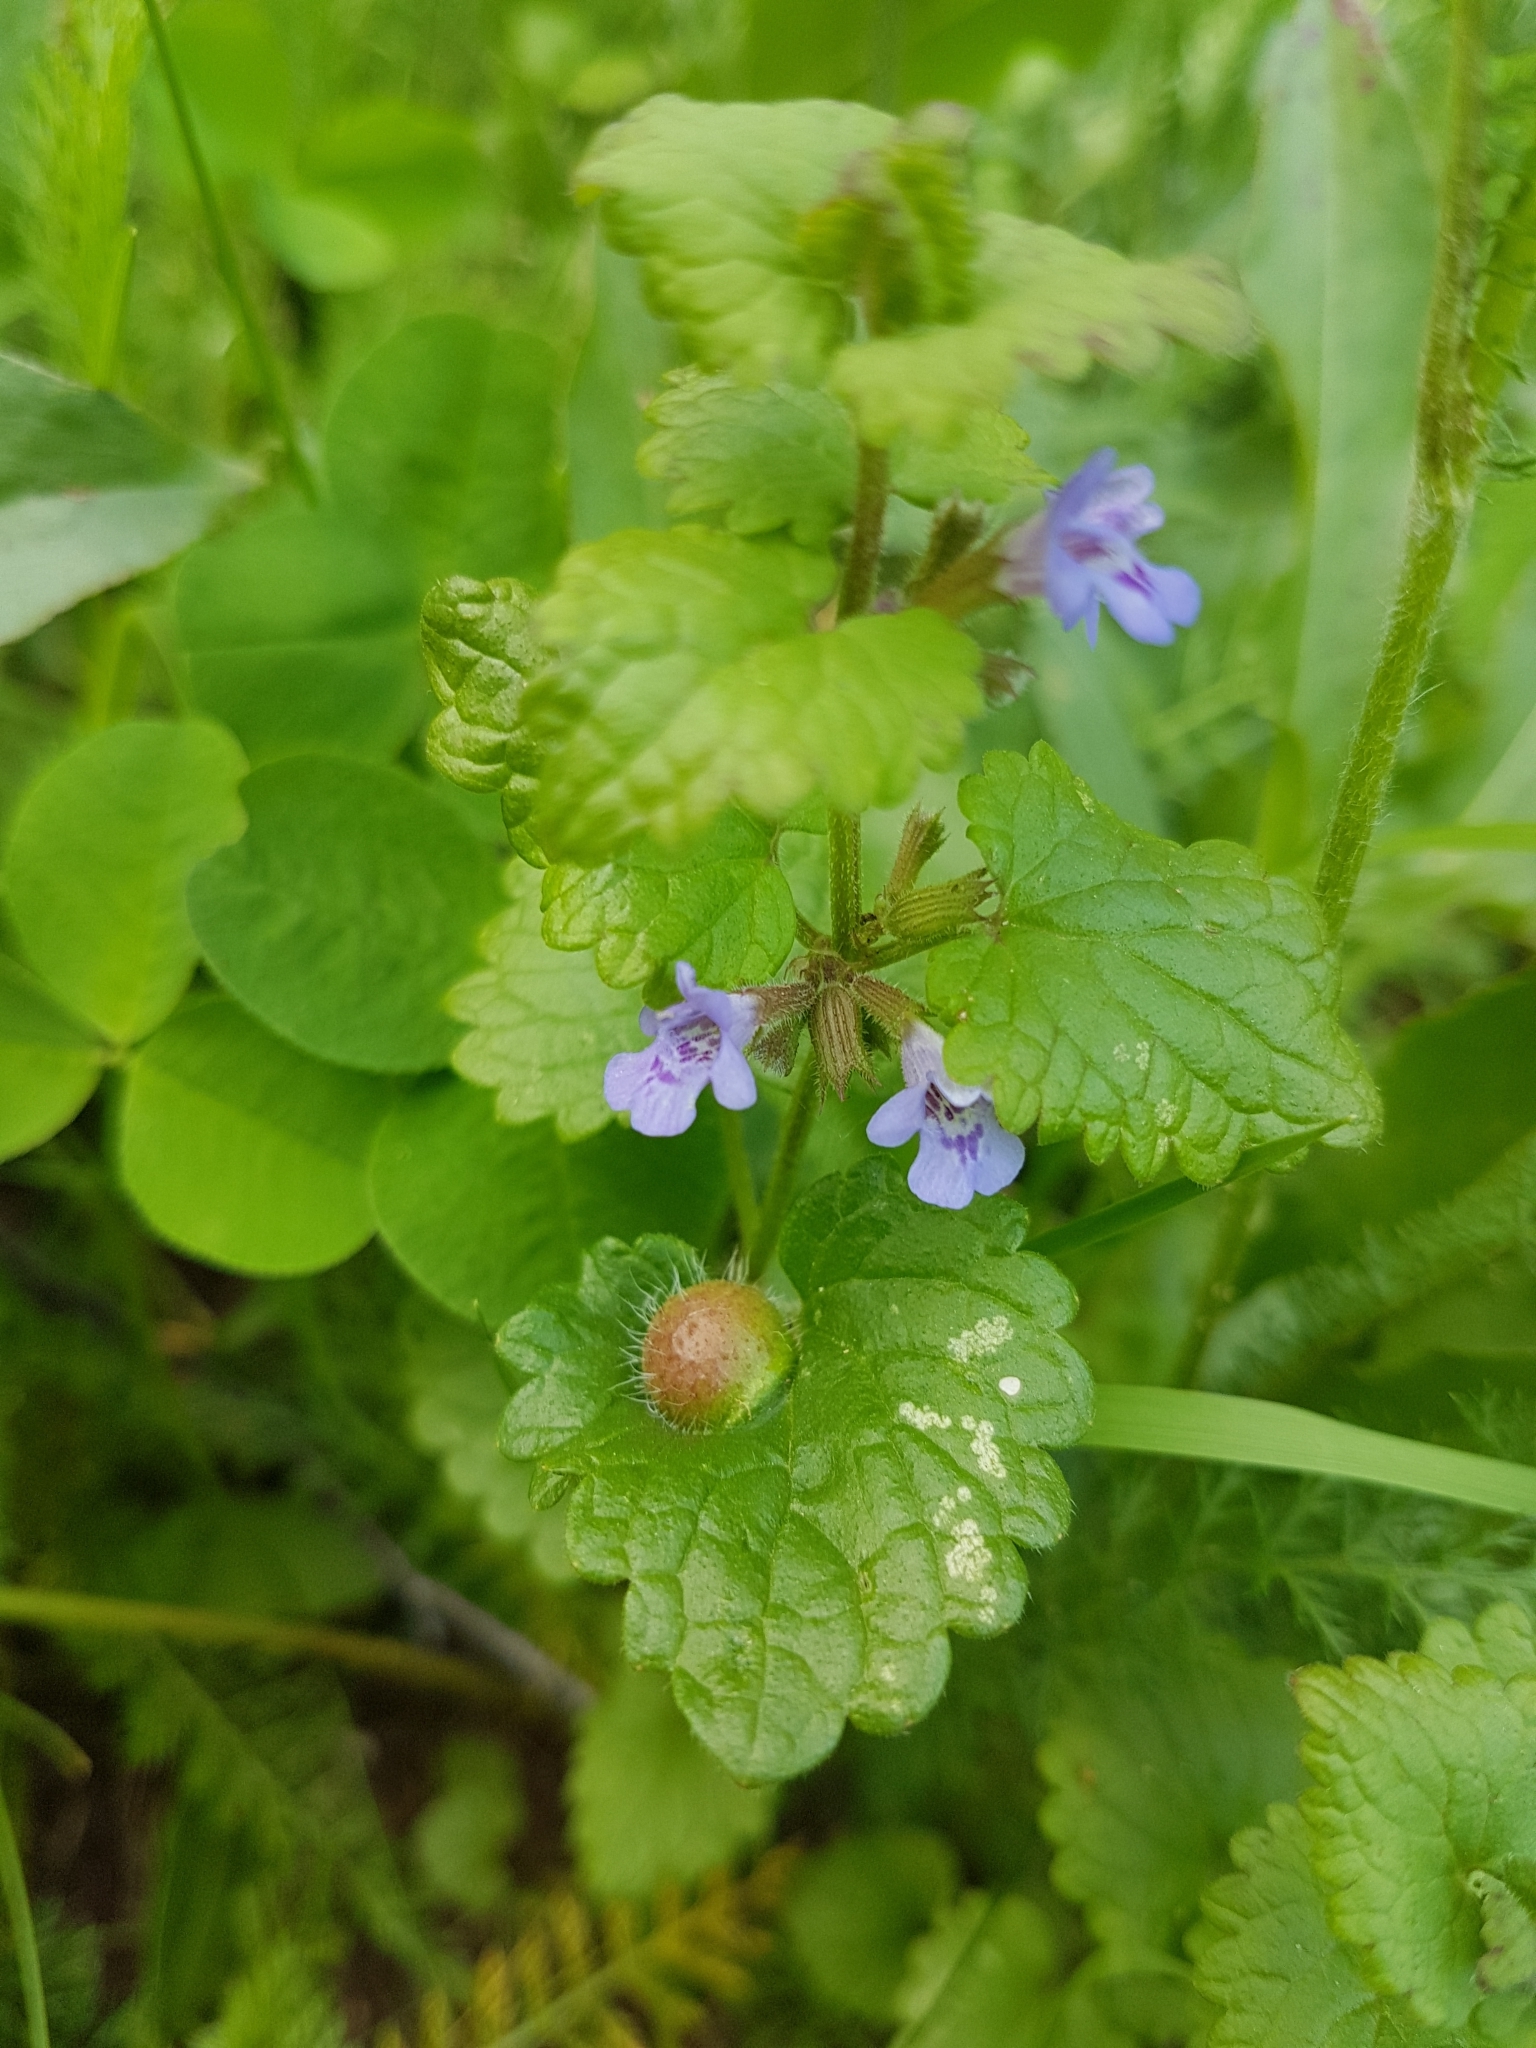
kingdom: Plantae
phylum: Tracheophyta
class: Magnoliopsida
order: Lamiales
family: Lamiaceae
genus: Glechoma
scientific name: Glechoma hederacea
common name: Ground ivy
